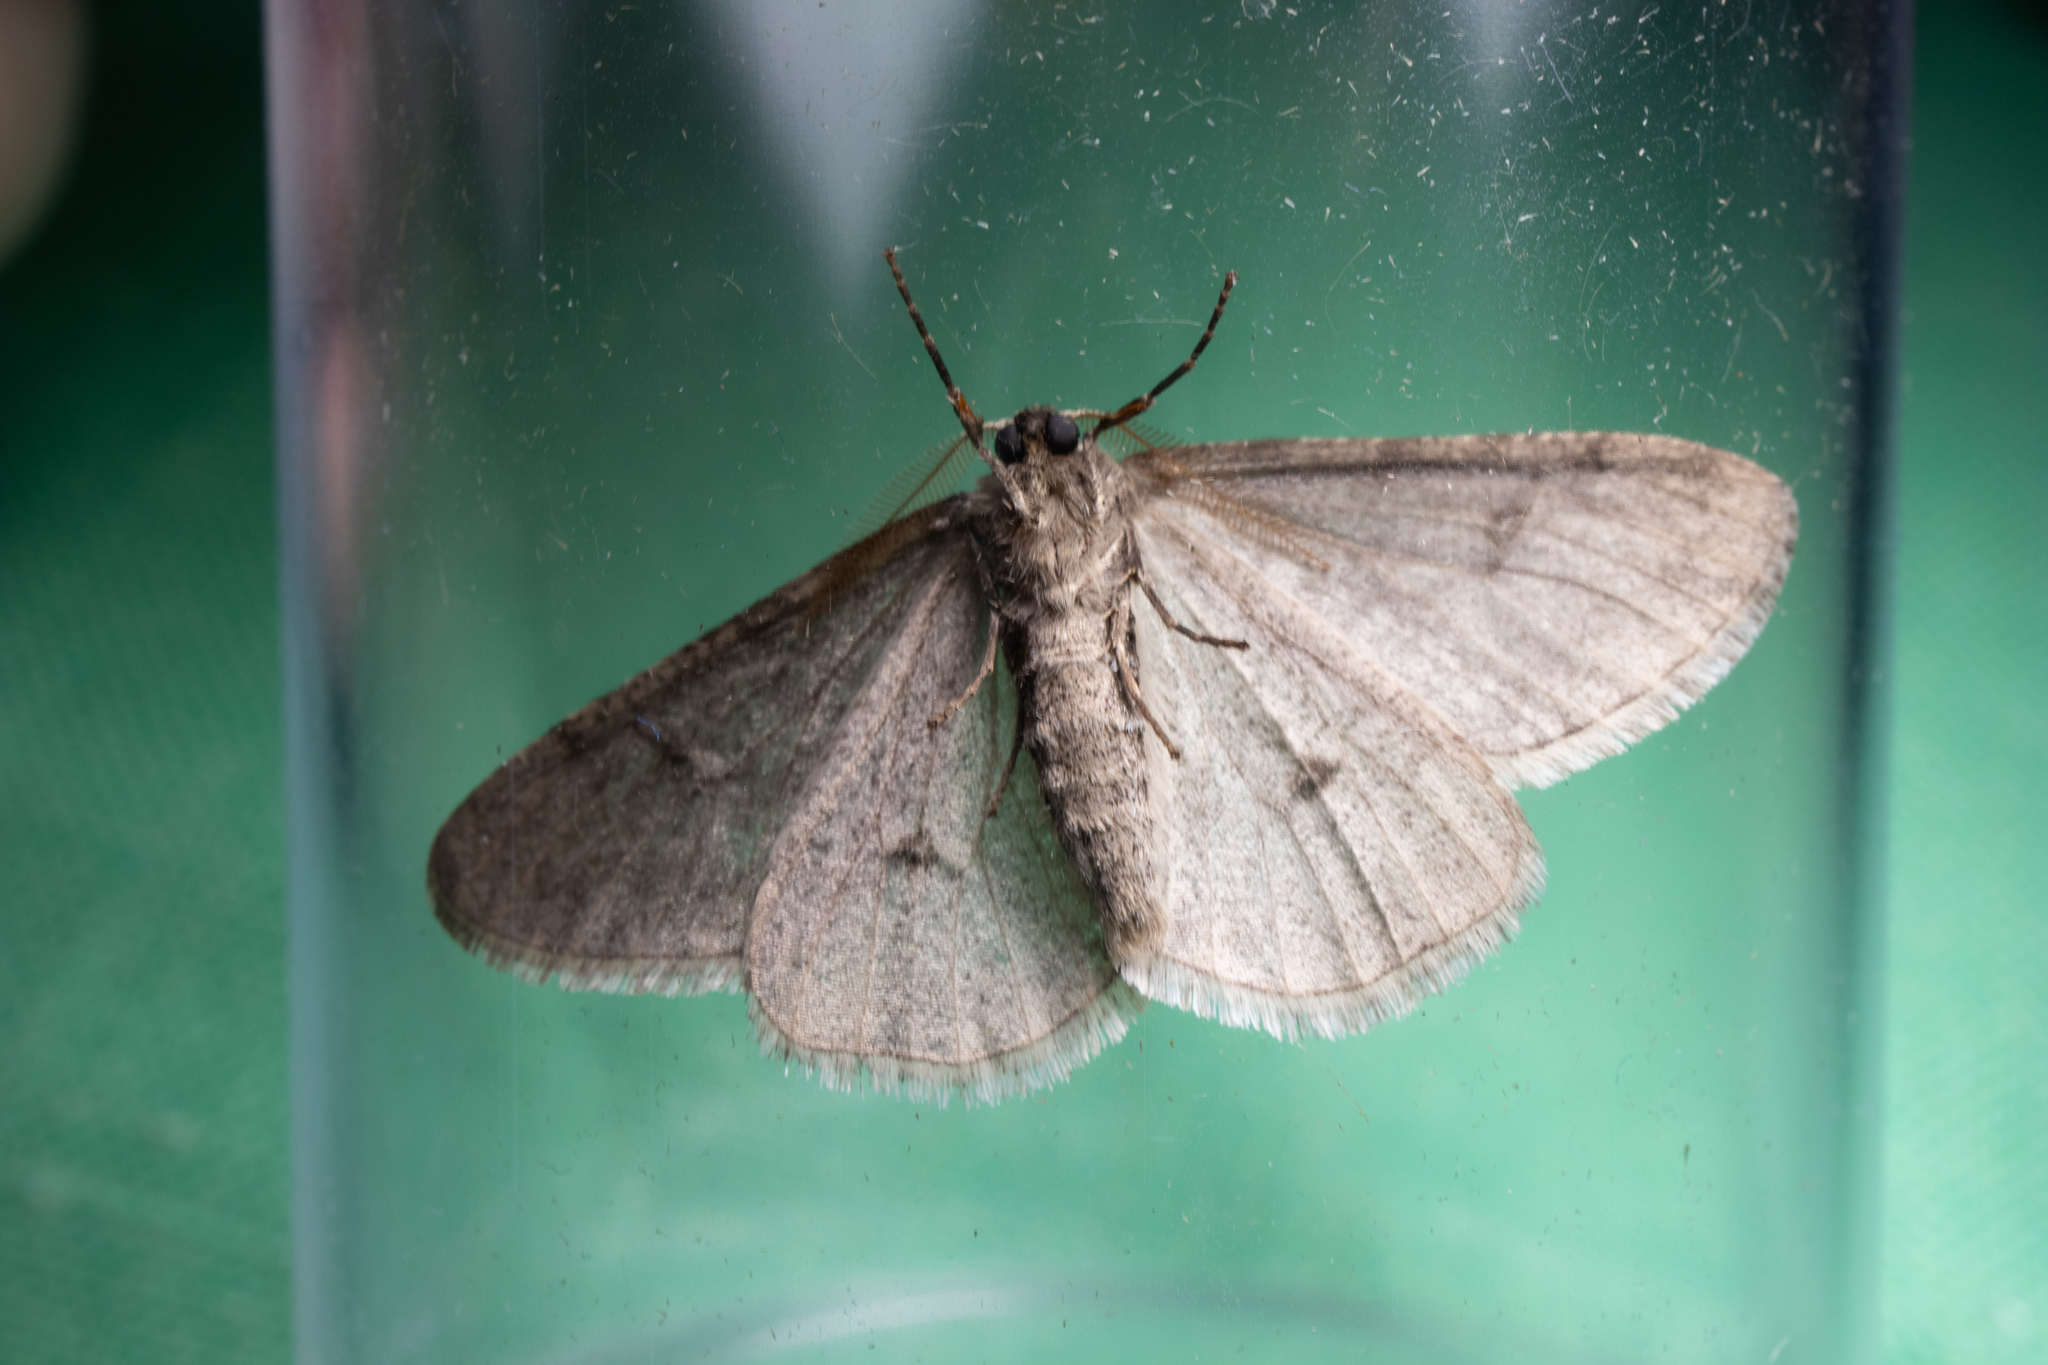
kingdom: Animalia
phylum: Arthropoda
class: Insecta
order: Lepidoptera
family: Geometridae
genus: Phigalia
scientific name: Phigalia denticulata
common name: Toothed phigalia
